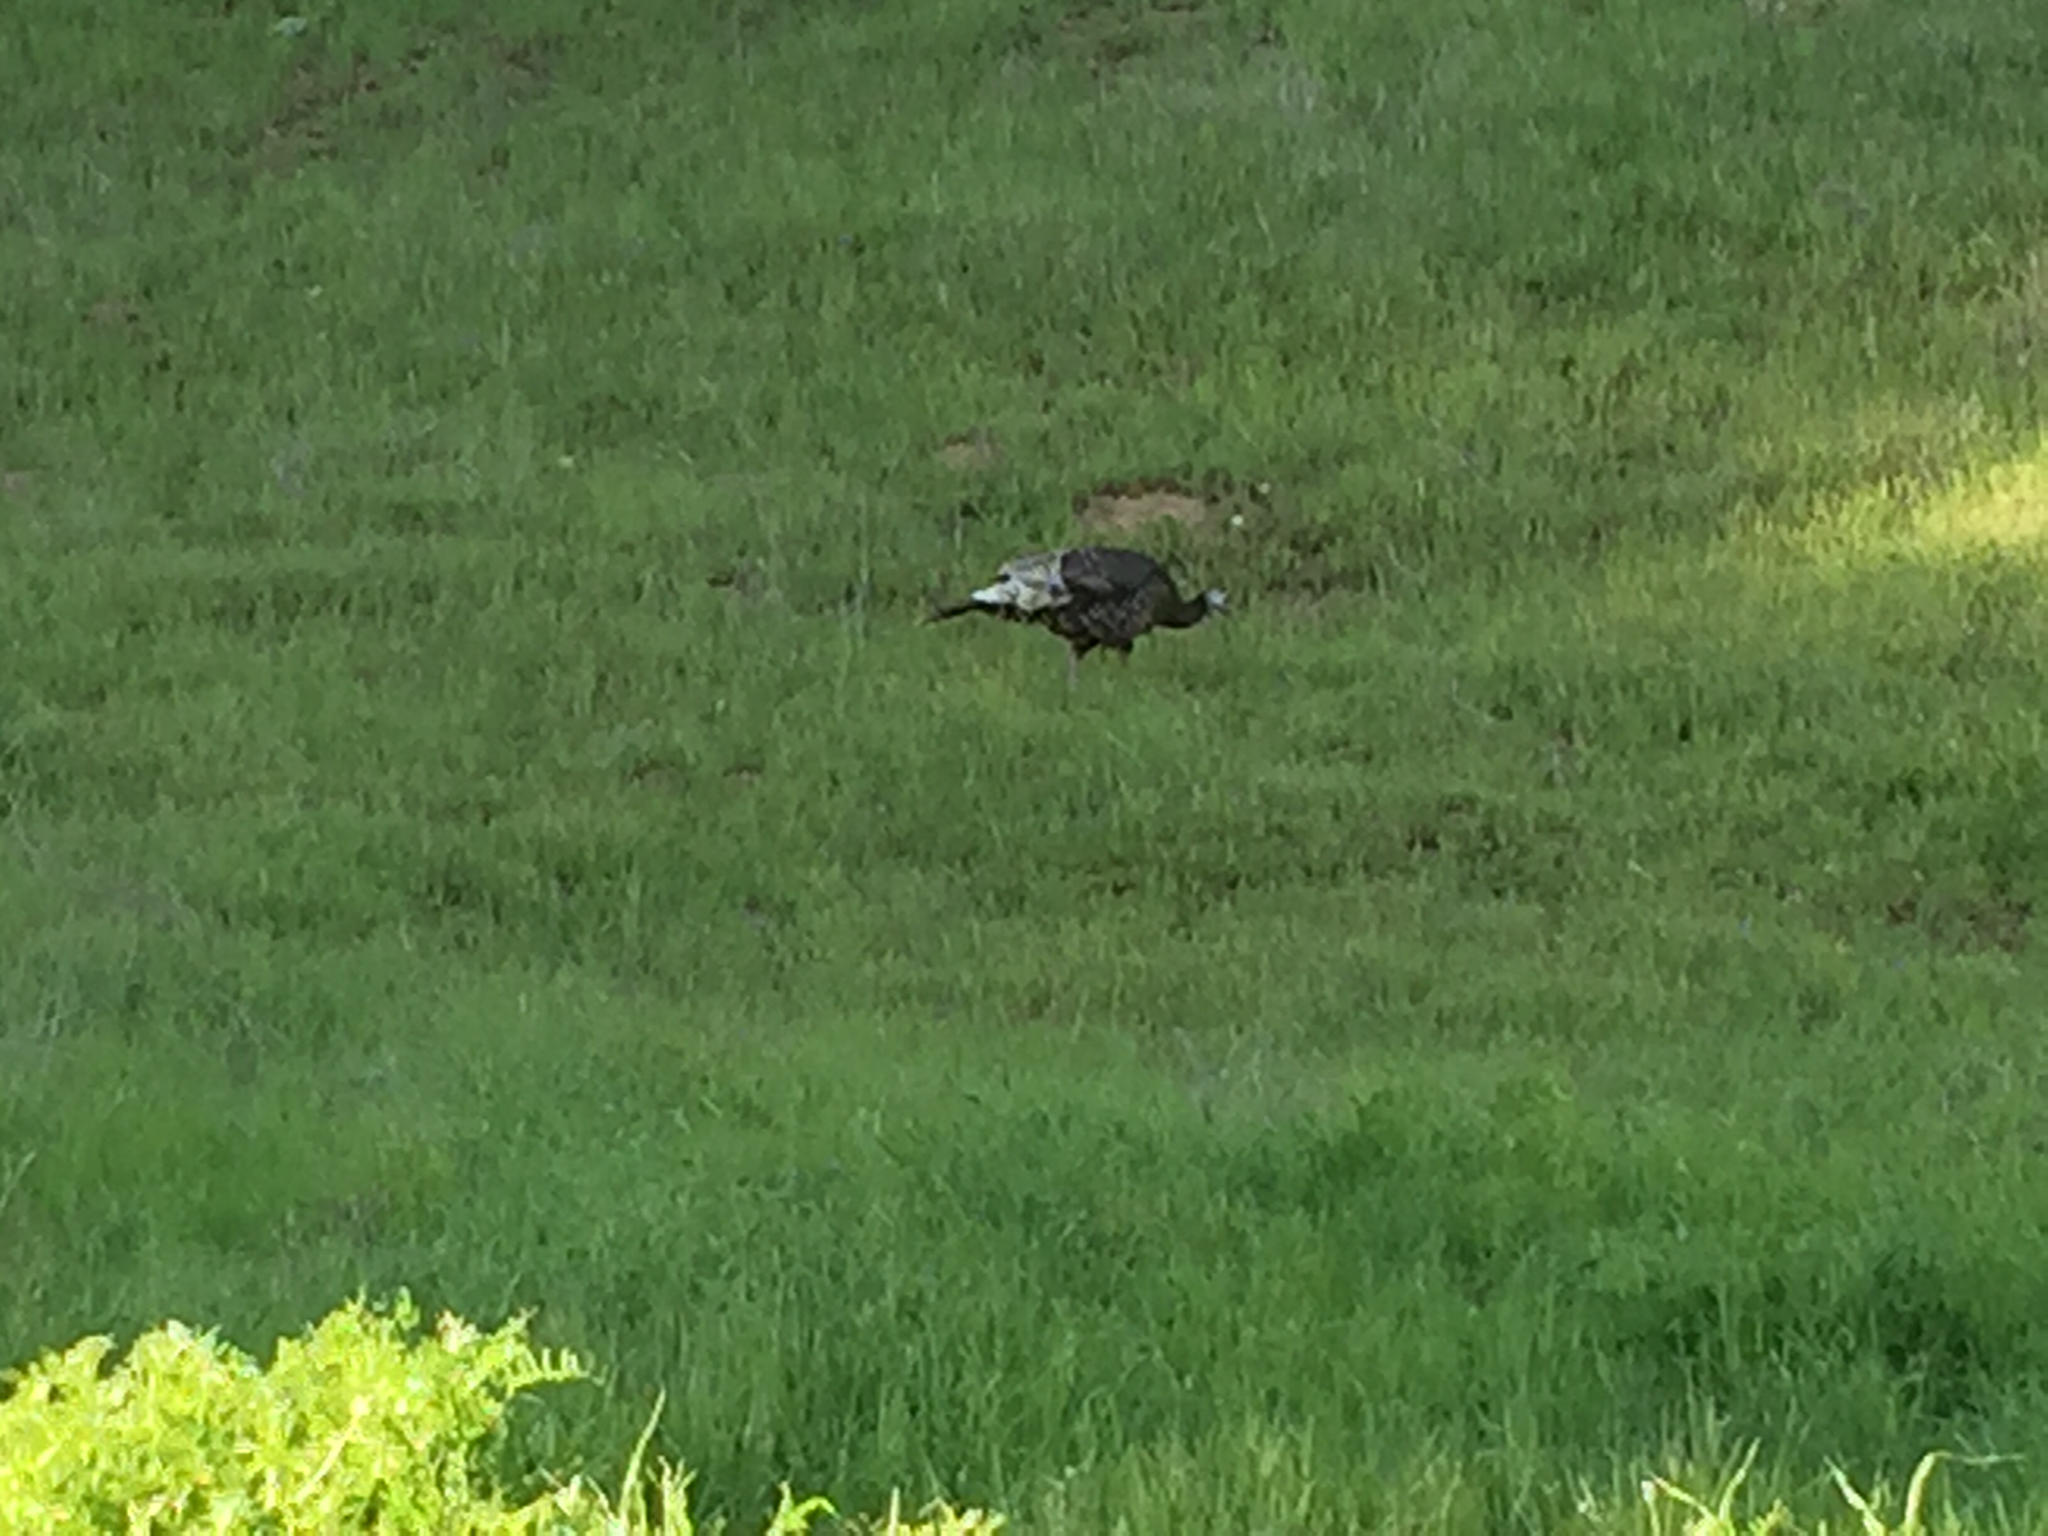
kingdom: Animalia
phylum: Chordata
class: Aves
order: Galliformes
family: Phasianidae
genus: Meleagris
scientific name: Meleagris gallopavo
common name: Wild turkey
